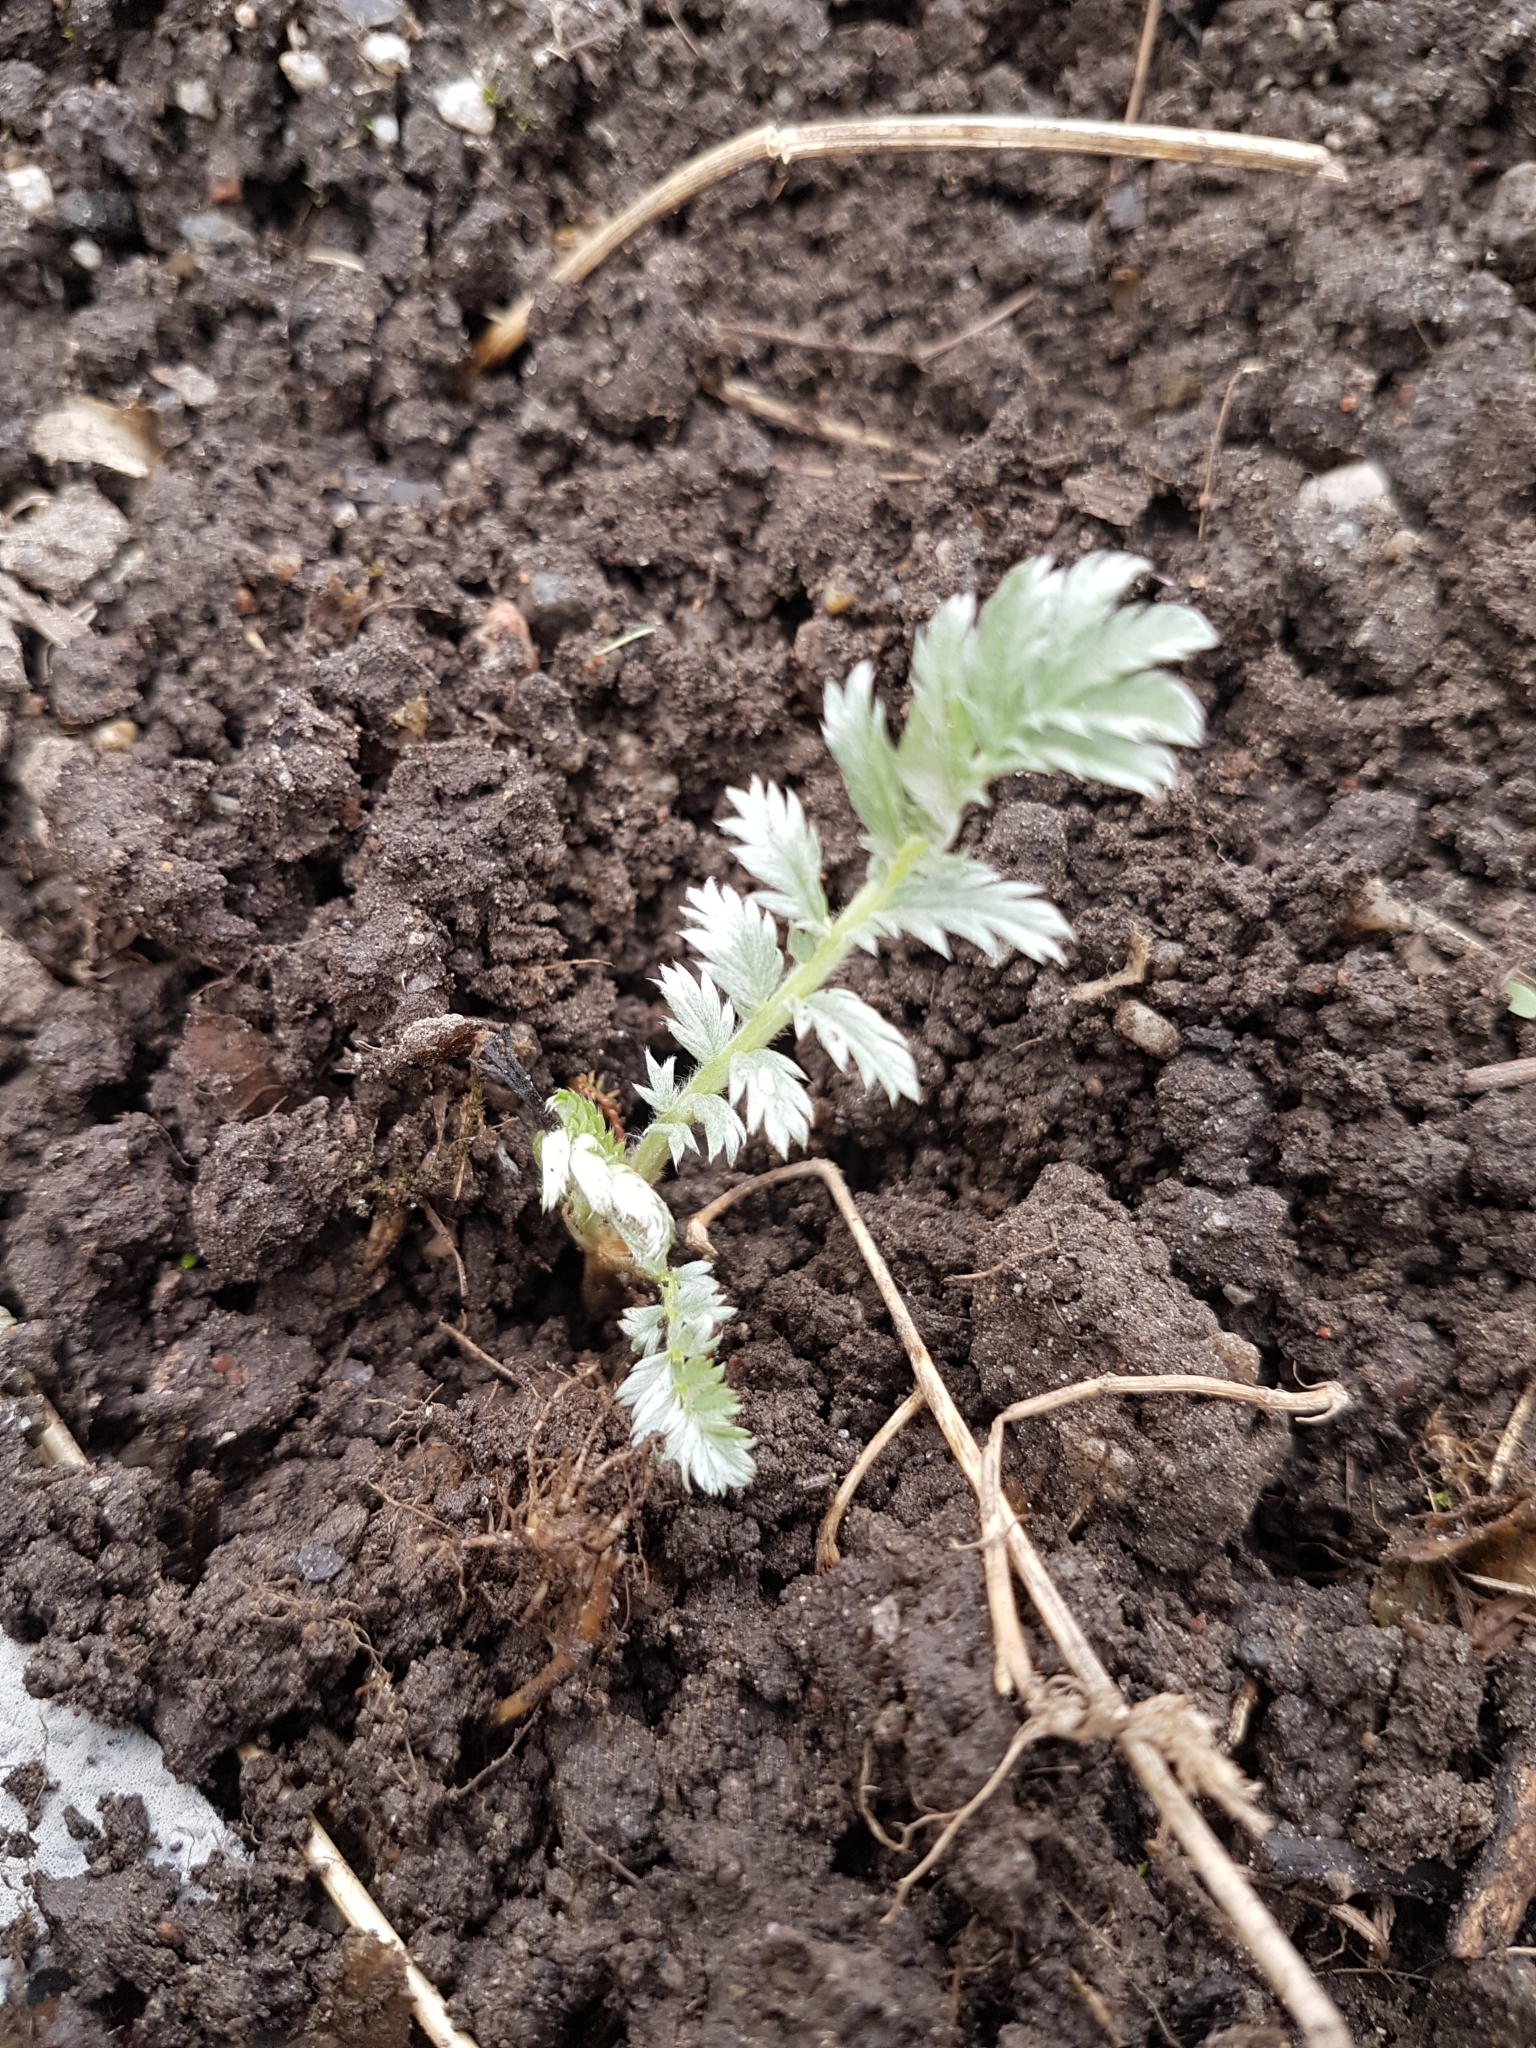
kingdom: Plantae
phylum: Tracheophyta
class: Magnoliopsida
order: Rosales
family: Rosaceae
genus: Argentina
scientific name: Argentina anserina
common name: Common silverweed
